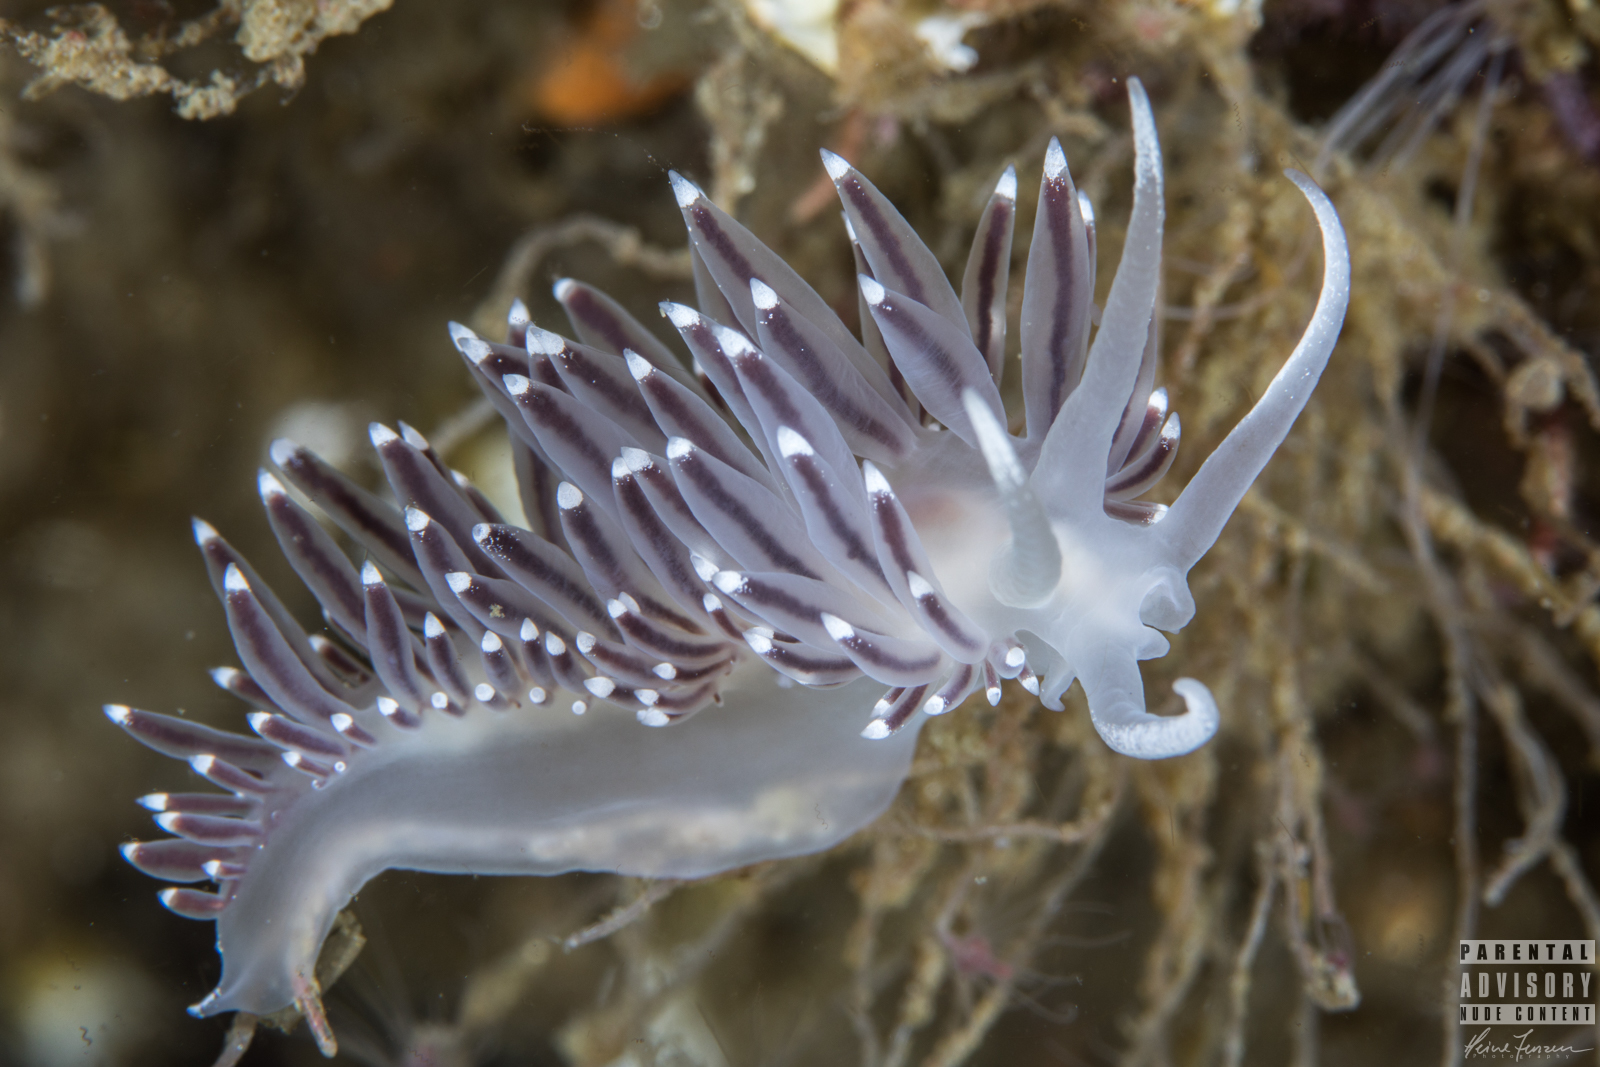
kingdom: Animalia
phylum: Mollusca
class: Gastropoda
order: Nudibranchia
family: Coryphellidae
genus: Coryphella
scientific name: Coryphella browni
